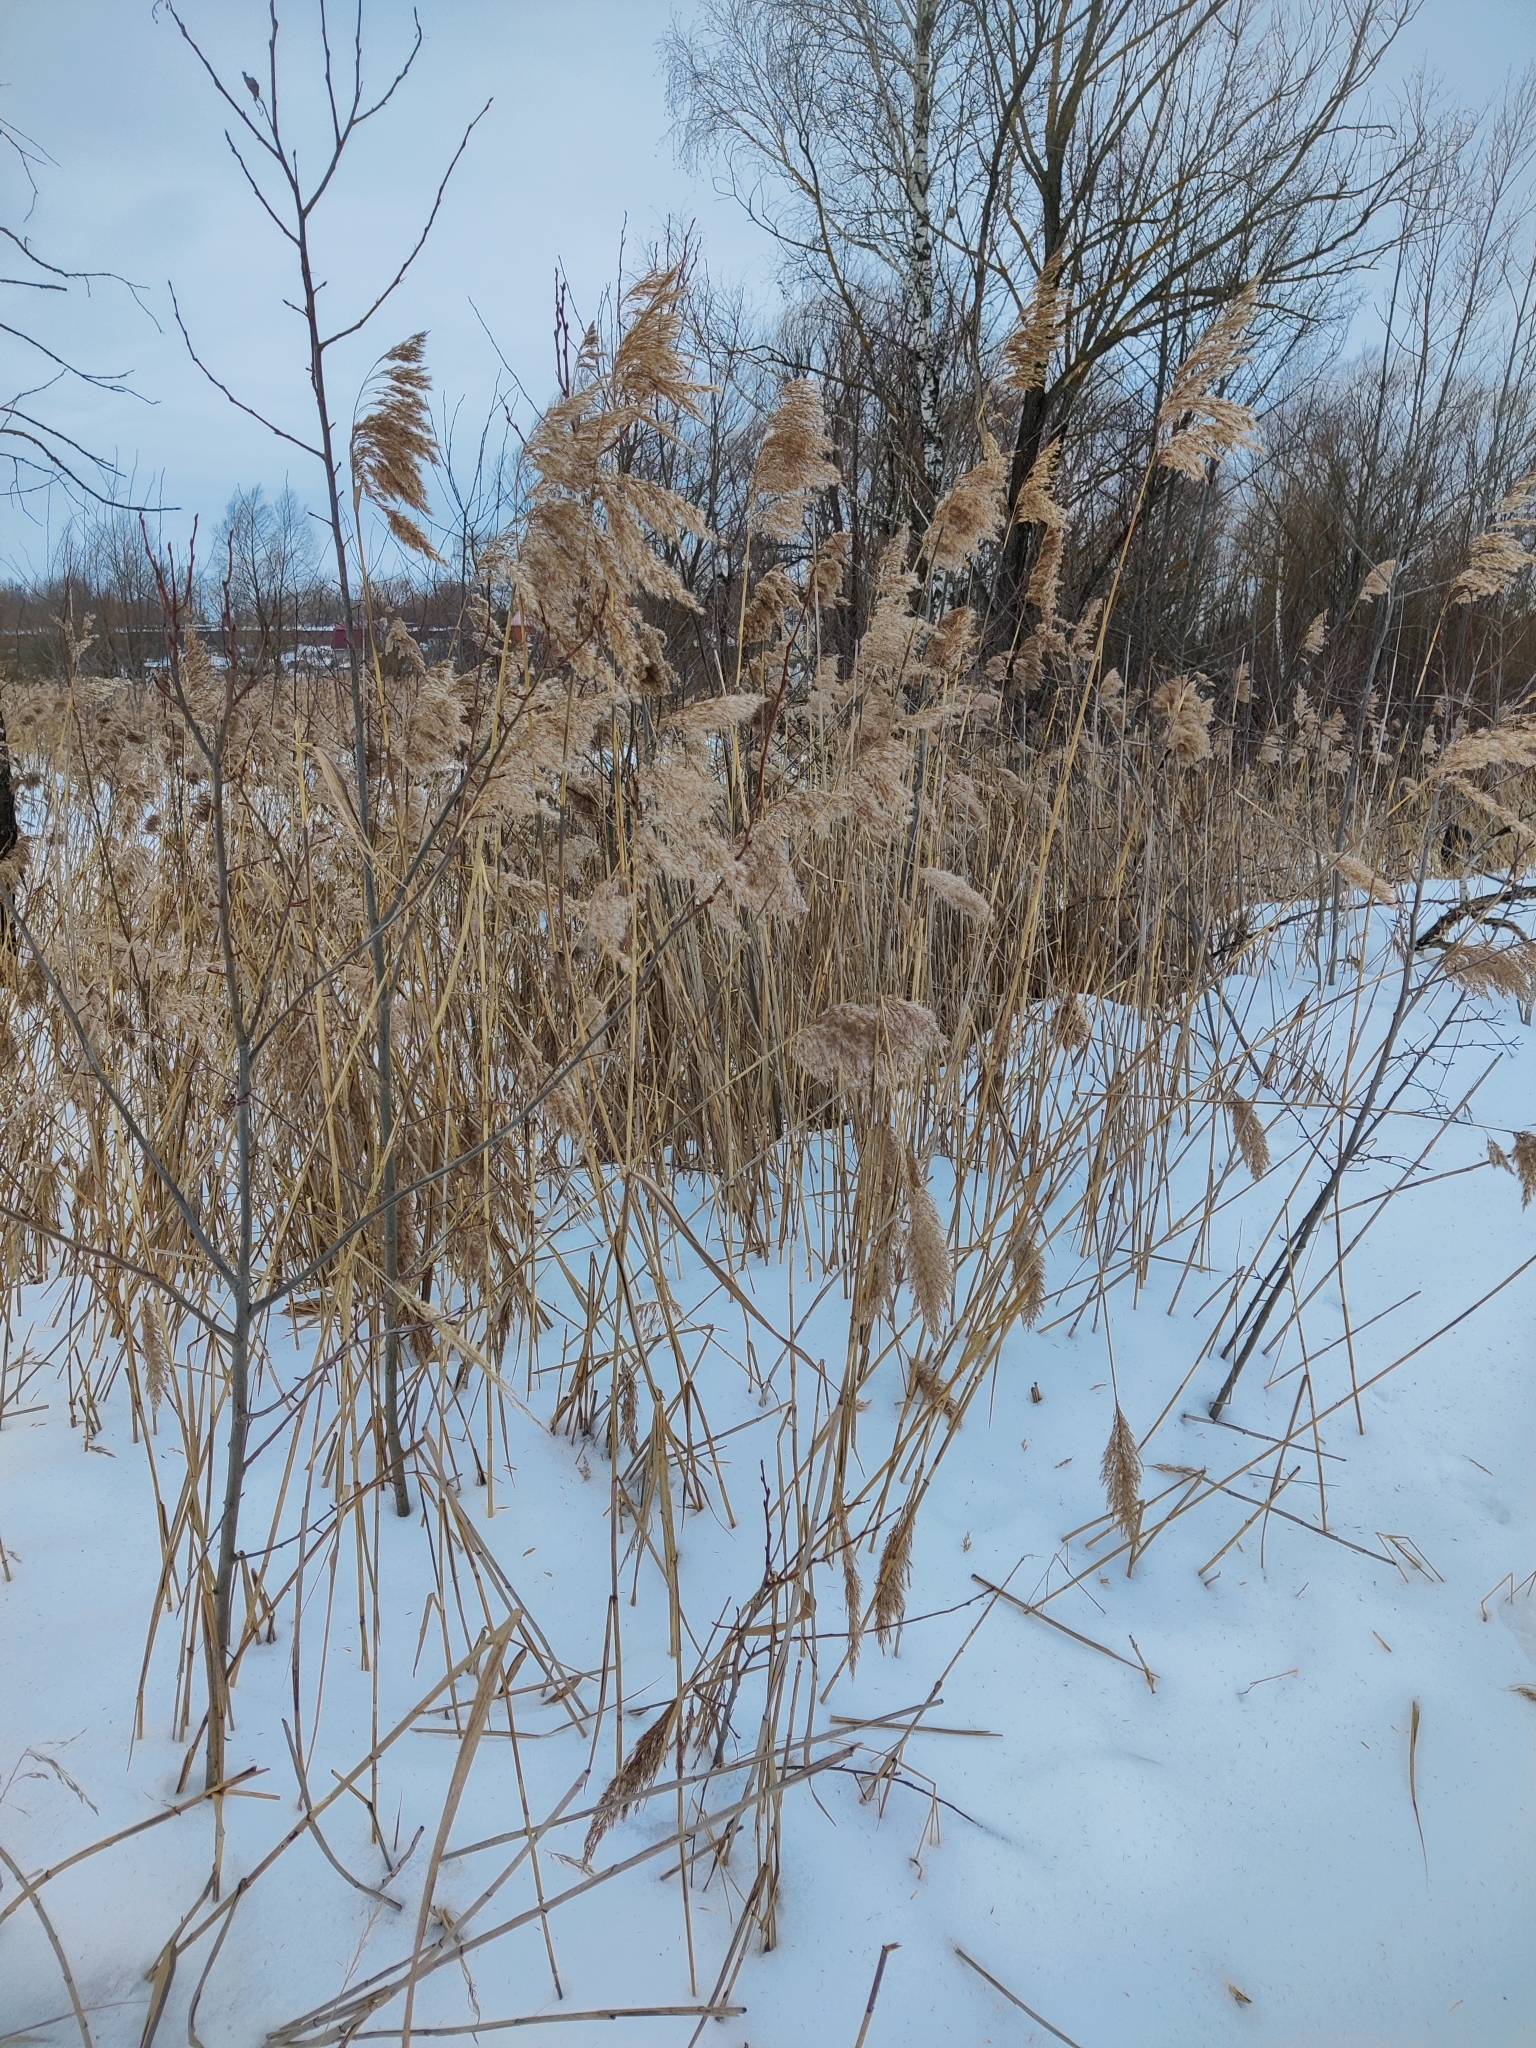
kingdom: Plantae
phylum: Tracheophyta
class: Liliopsida
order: Poales
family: Poaceae
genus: Phragmites
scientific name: Phragmites australis
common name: Common reed
